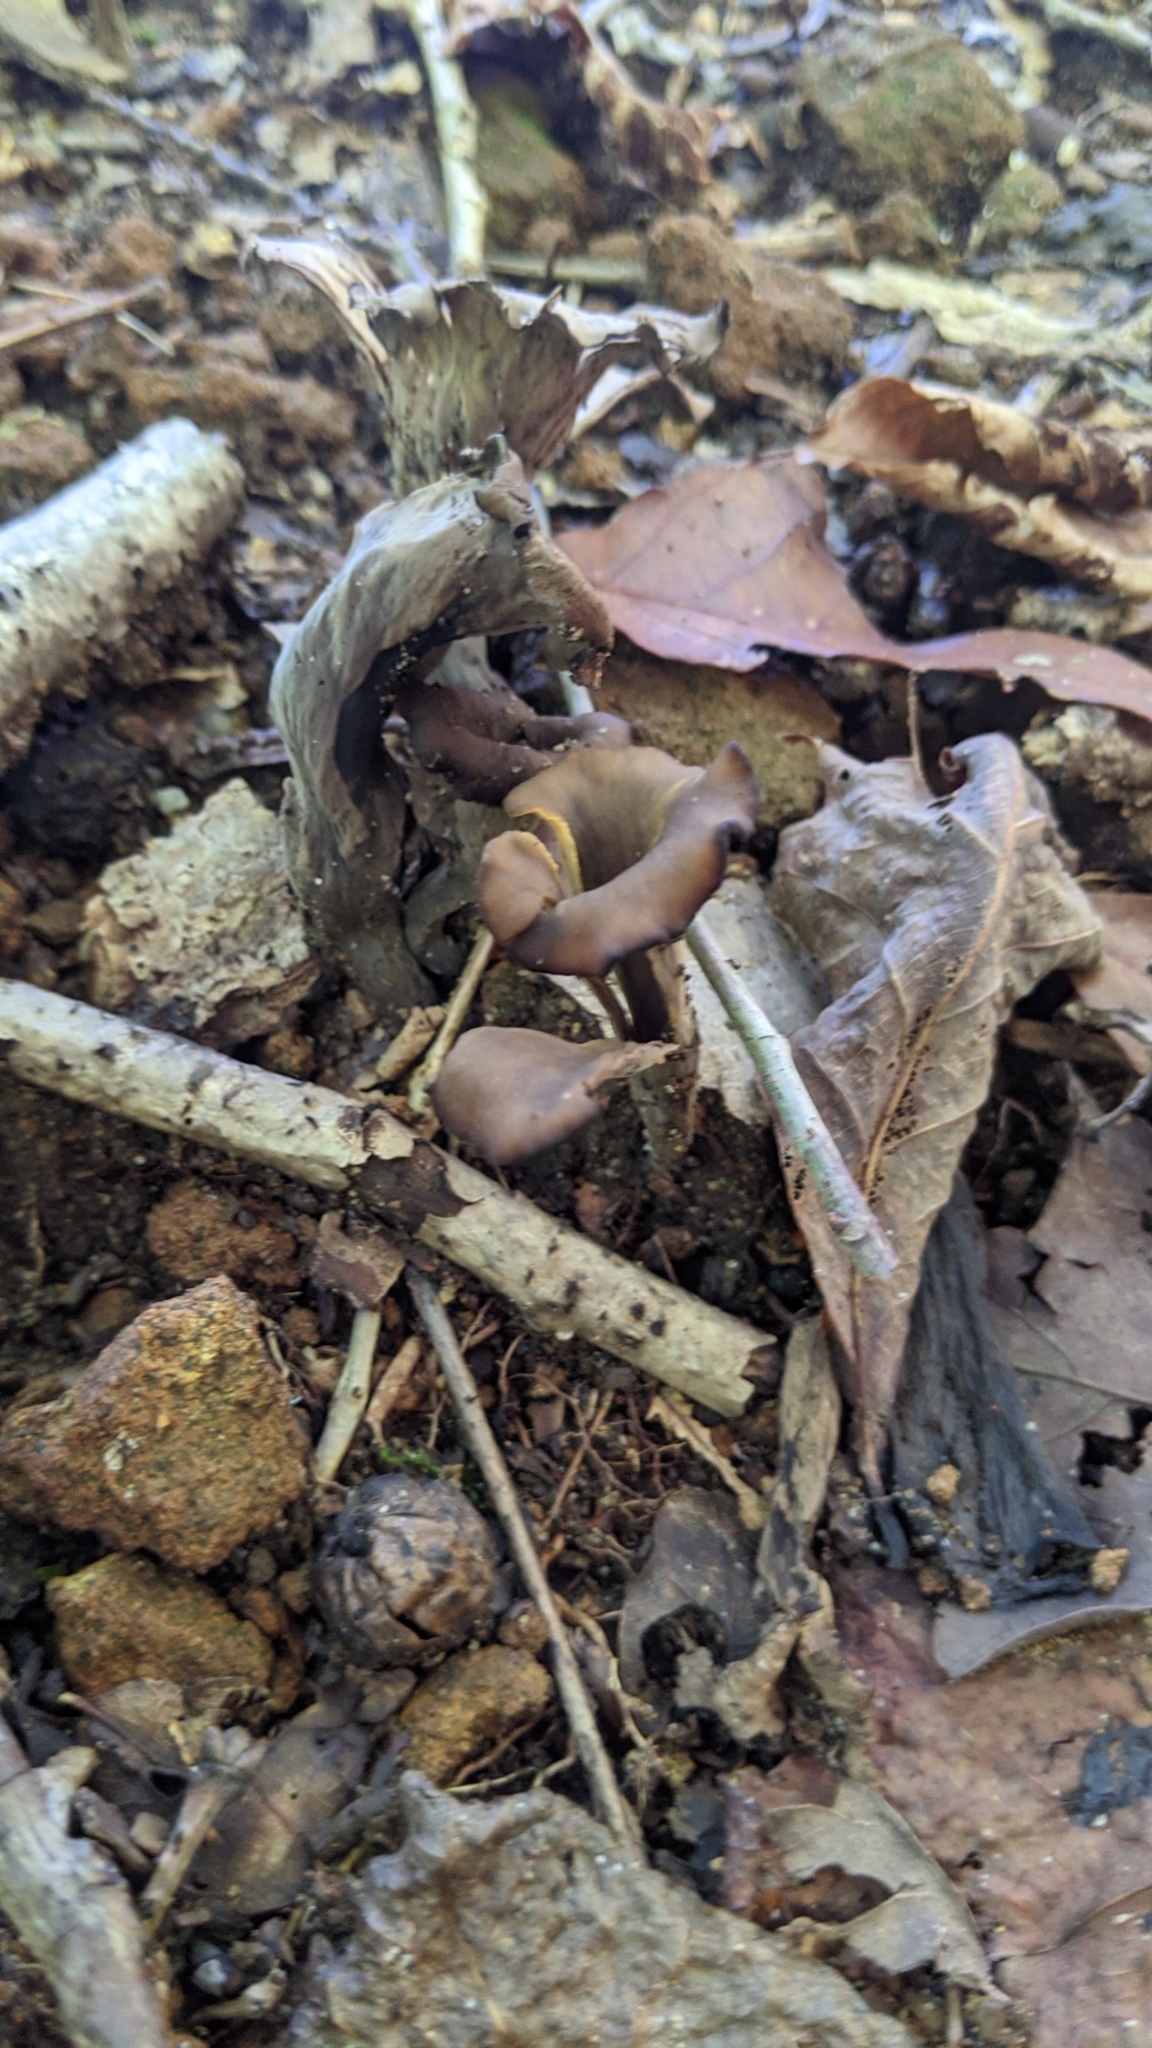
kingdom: Fungi
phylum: Basidiomycota
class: Agaricomycetes
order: Cantharellales
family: Hydnaceae
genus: Craterellus
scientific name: Craterellus cornucopioides
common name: Horn of plenty
